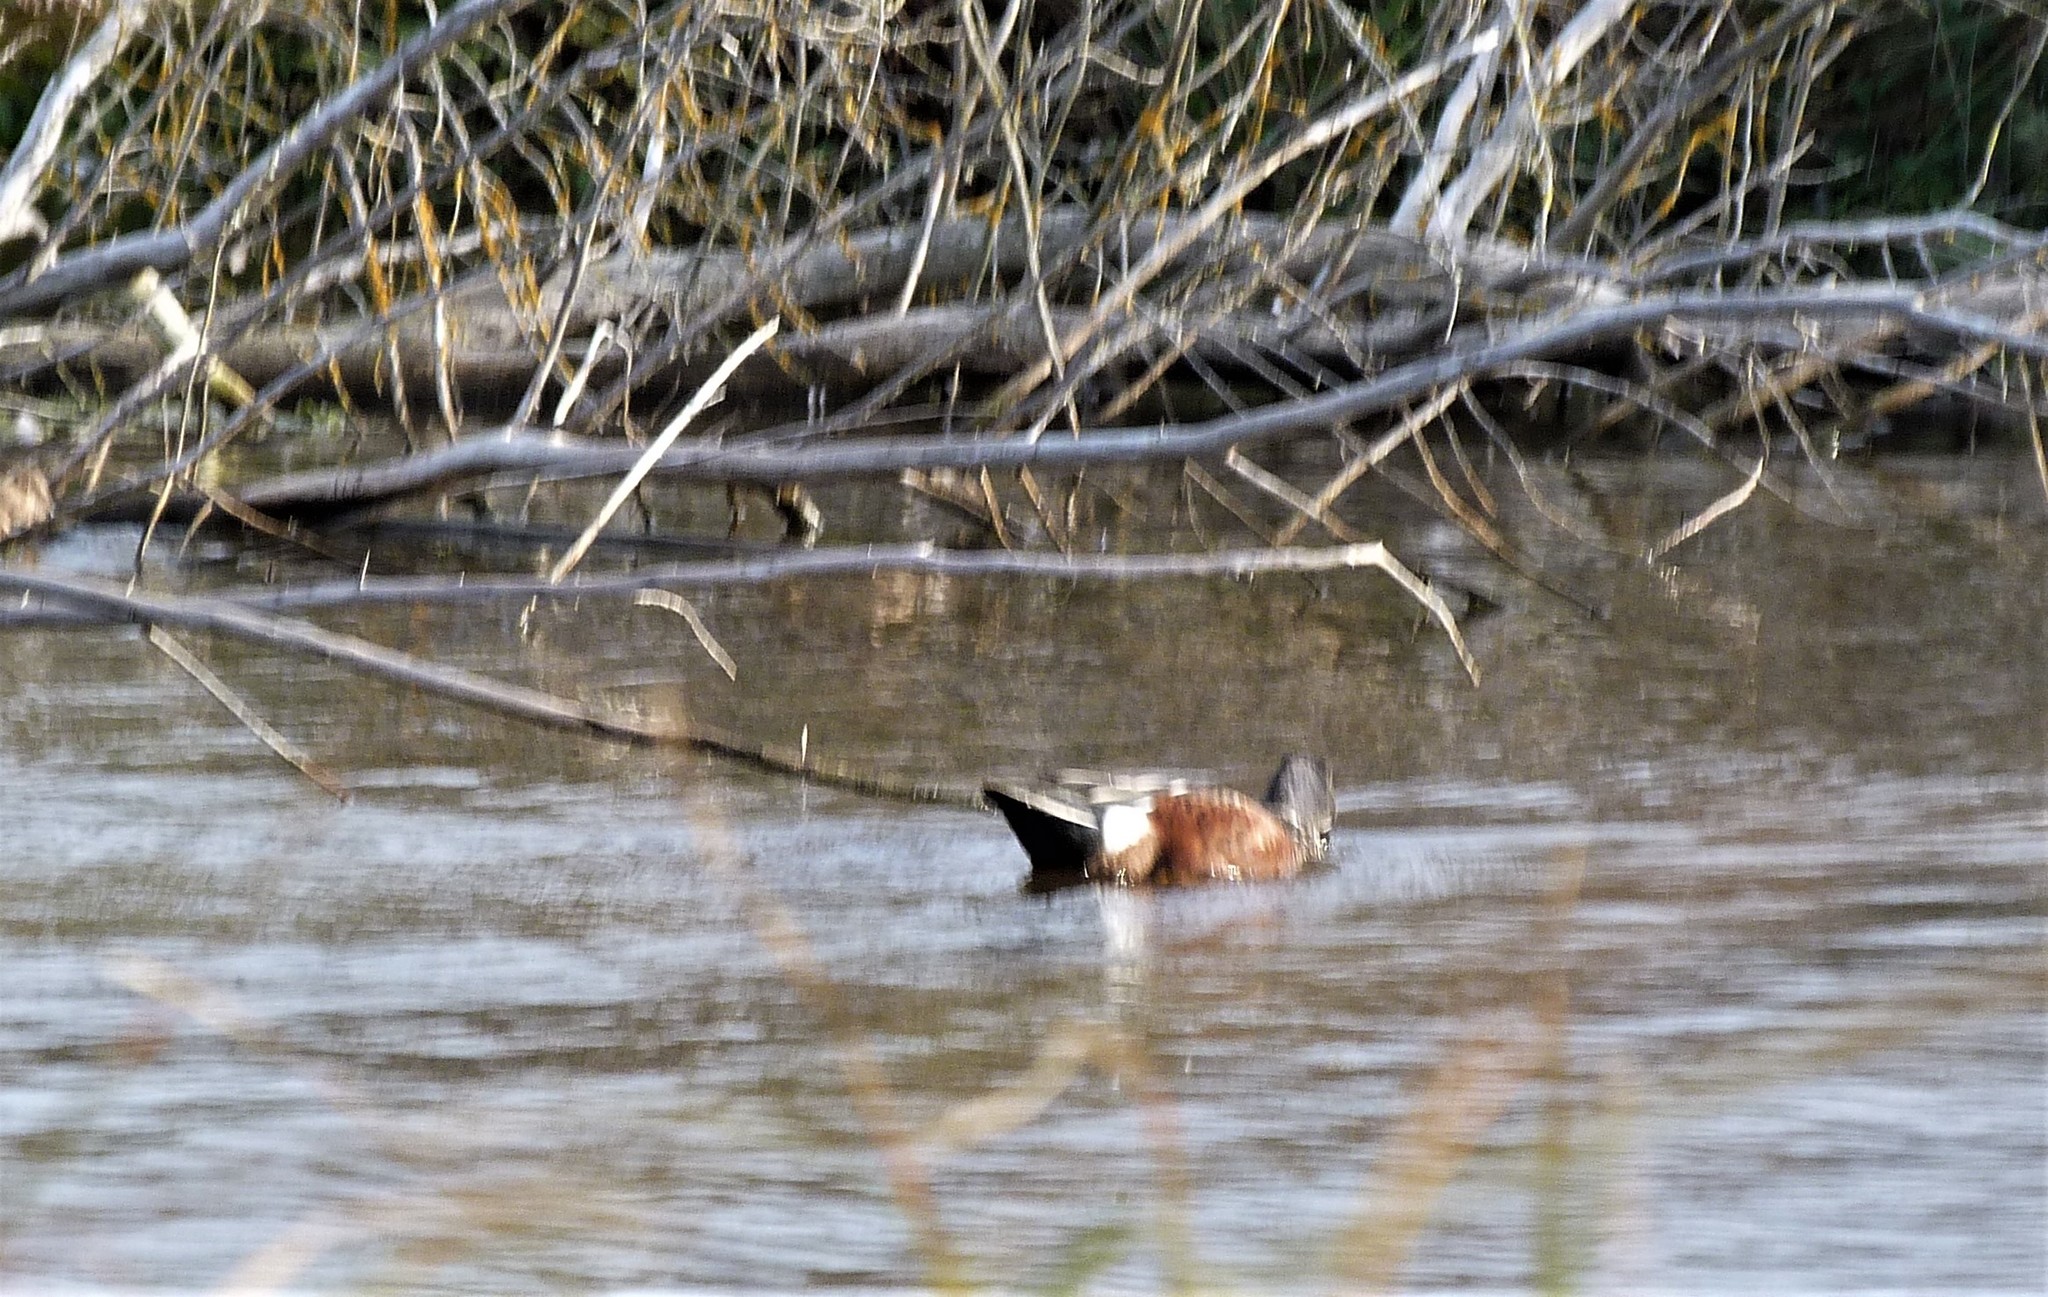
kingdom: Animalia
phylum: Chordata
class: Aves
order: Anseriformes
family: Anatidae
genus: Spatula
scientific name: Spatula rhynchotis
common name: Australian shoveler
